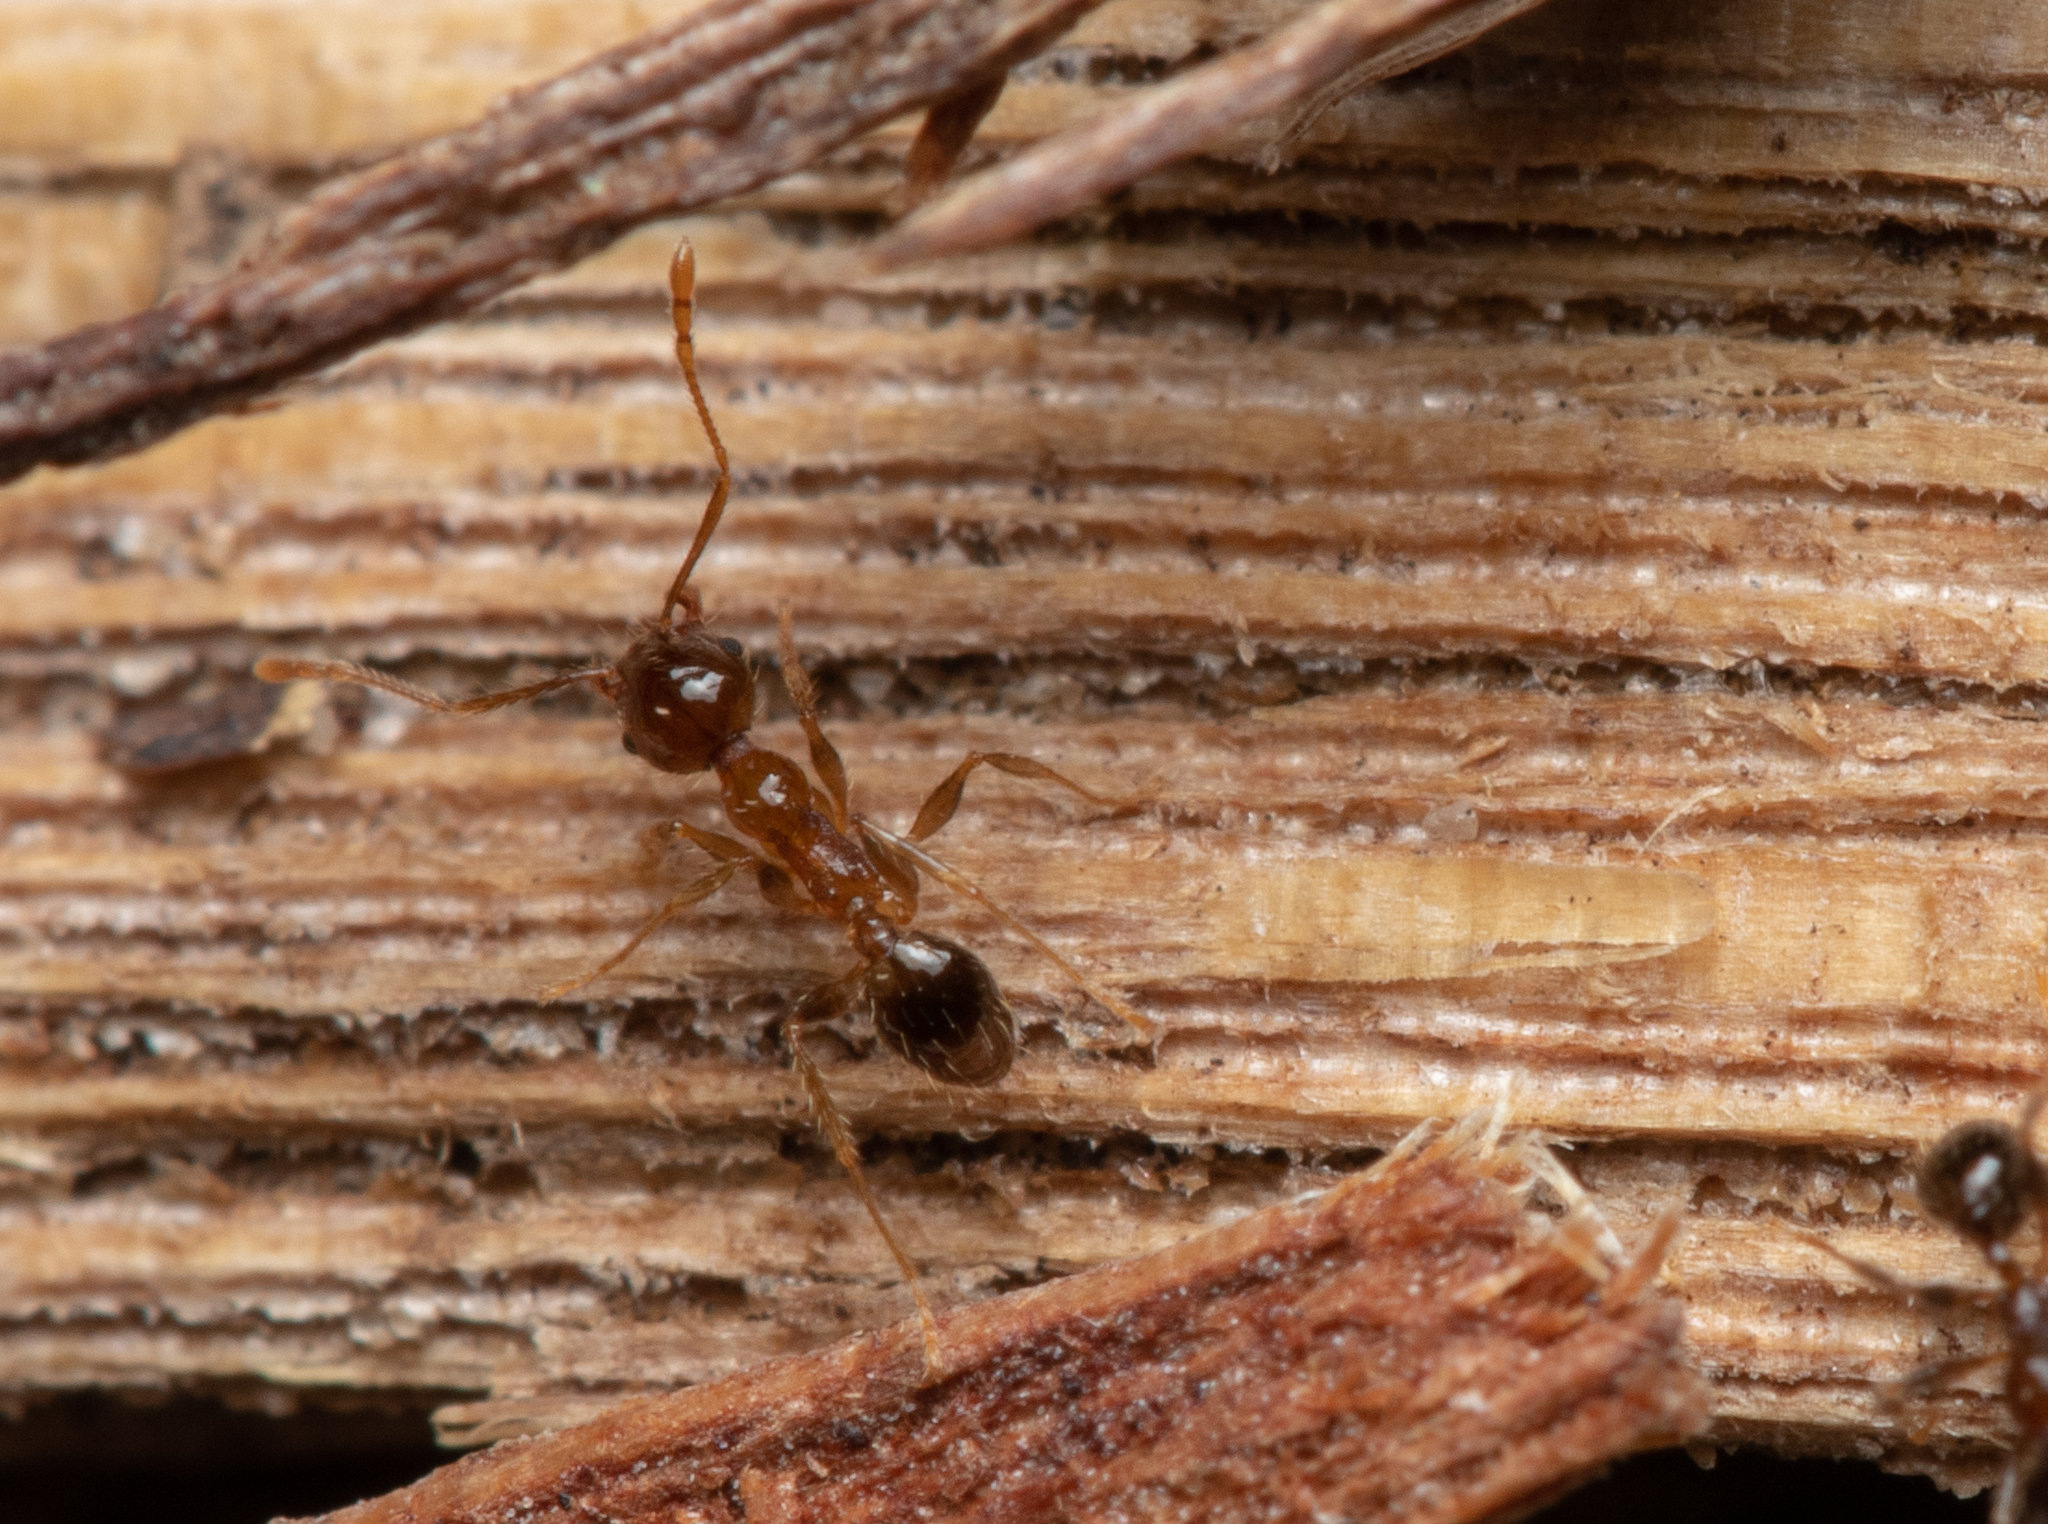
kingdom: Animalia
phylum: Arthropoda
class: Insecta
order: Hymenoptera
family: Formicidae
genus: Pheidole
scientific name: Pheidole megacephala
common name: Bigheaded ant
